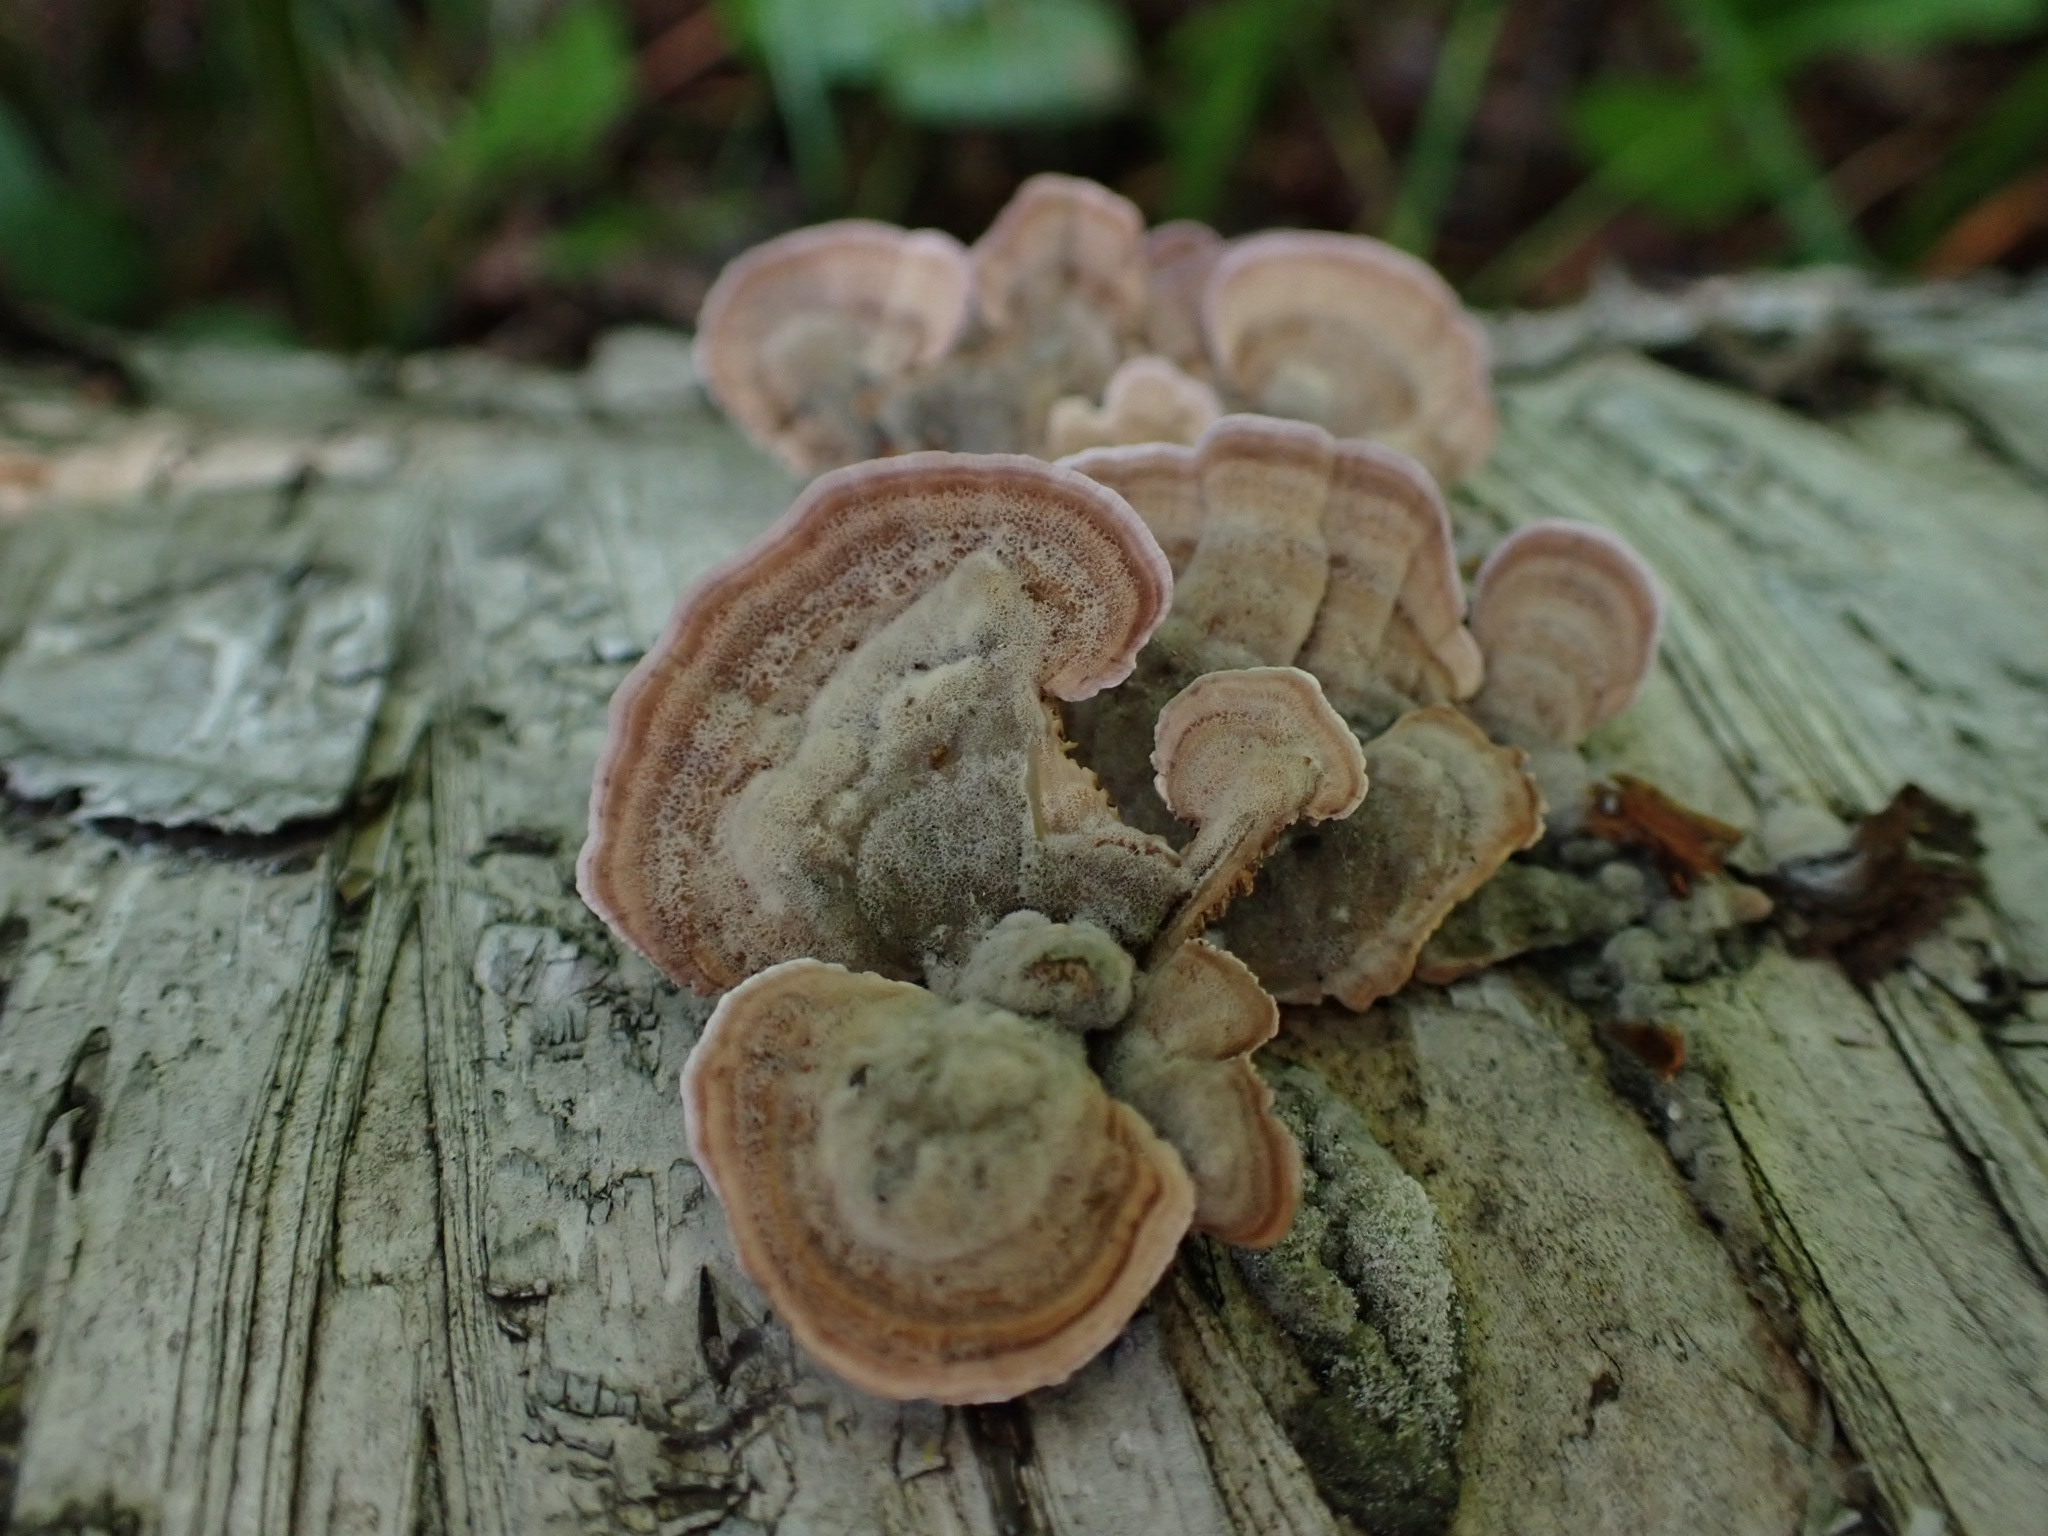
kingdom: Fungi
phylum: Basidiomycota
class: Agaricomycetes
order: Hymenochaetales
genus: Trichaptum
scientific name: Trichaptum biforme
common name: Violet-toothed polypore
